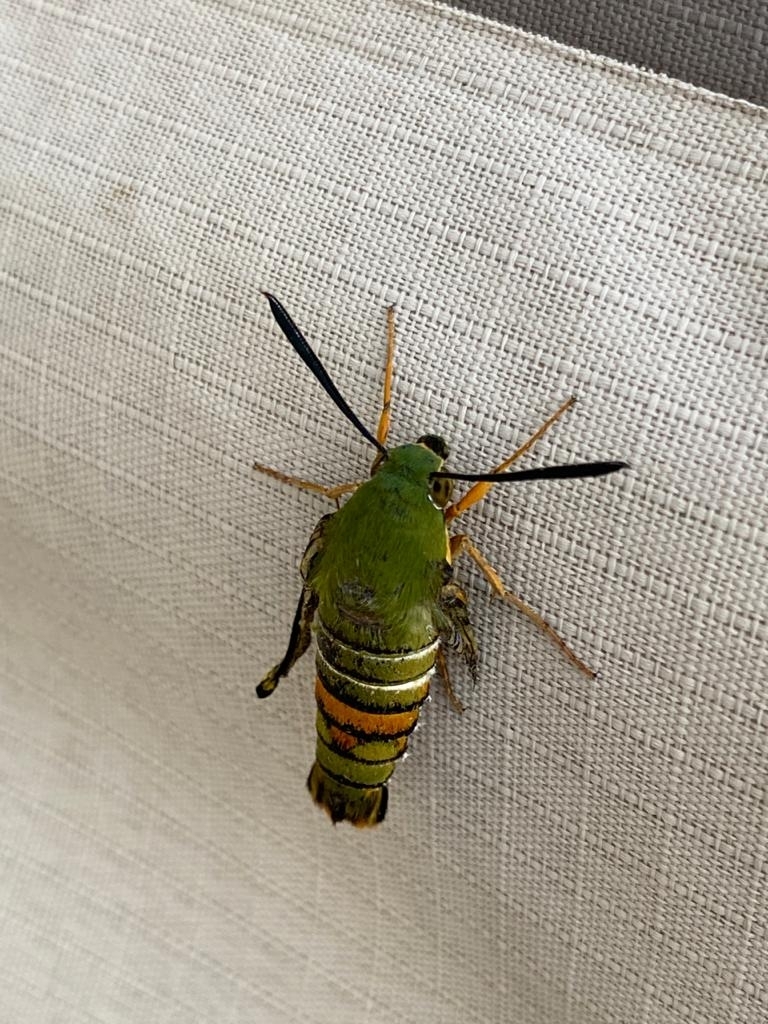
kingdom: Animalia
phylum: Arthropoda
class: Insecta
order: Lepidoptera
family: Sphingidae
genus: Cephonodes
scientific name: Cephonodes armatus
